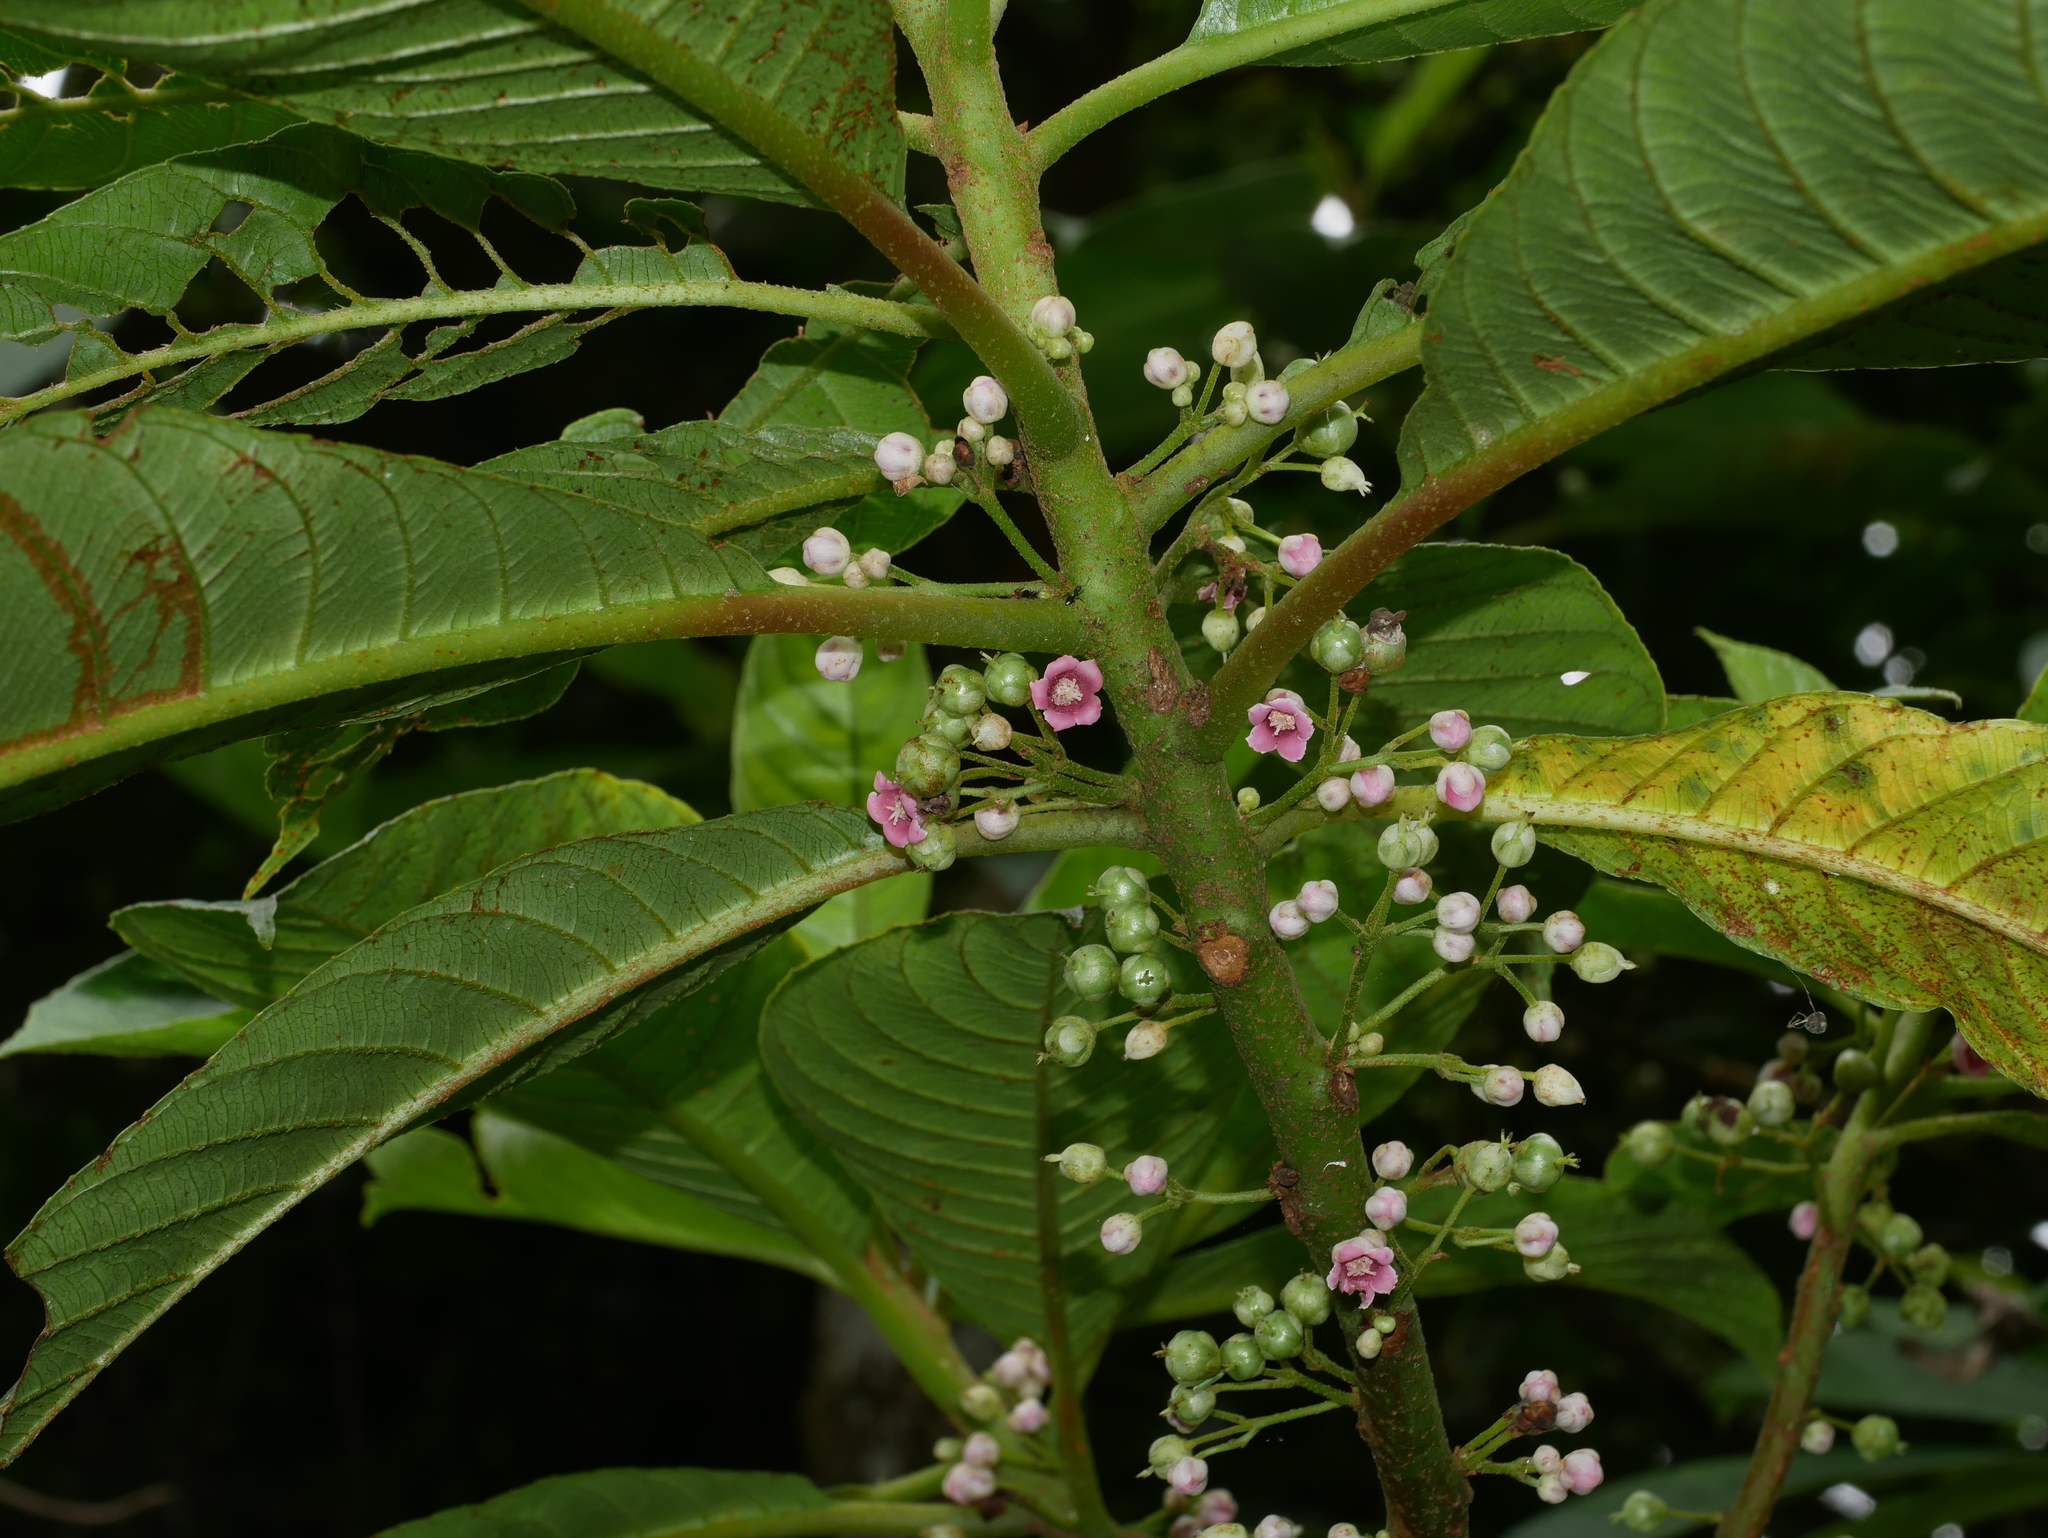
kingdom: Plantae
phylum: Tracheophyta
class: Magnoliopsida
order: Ericales
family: Actinidiaceae
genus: Saurauia
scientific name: Saurauia tristyla
